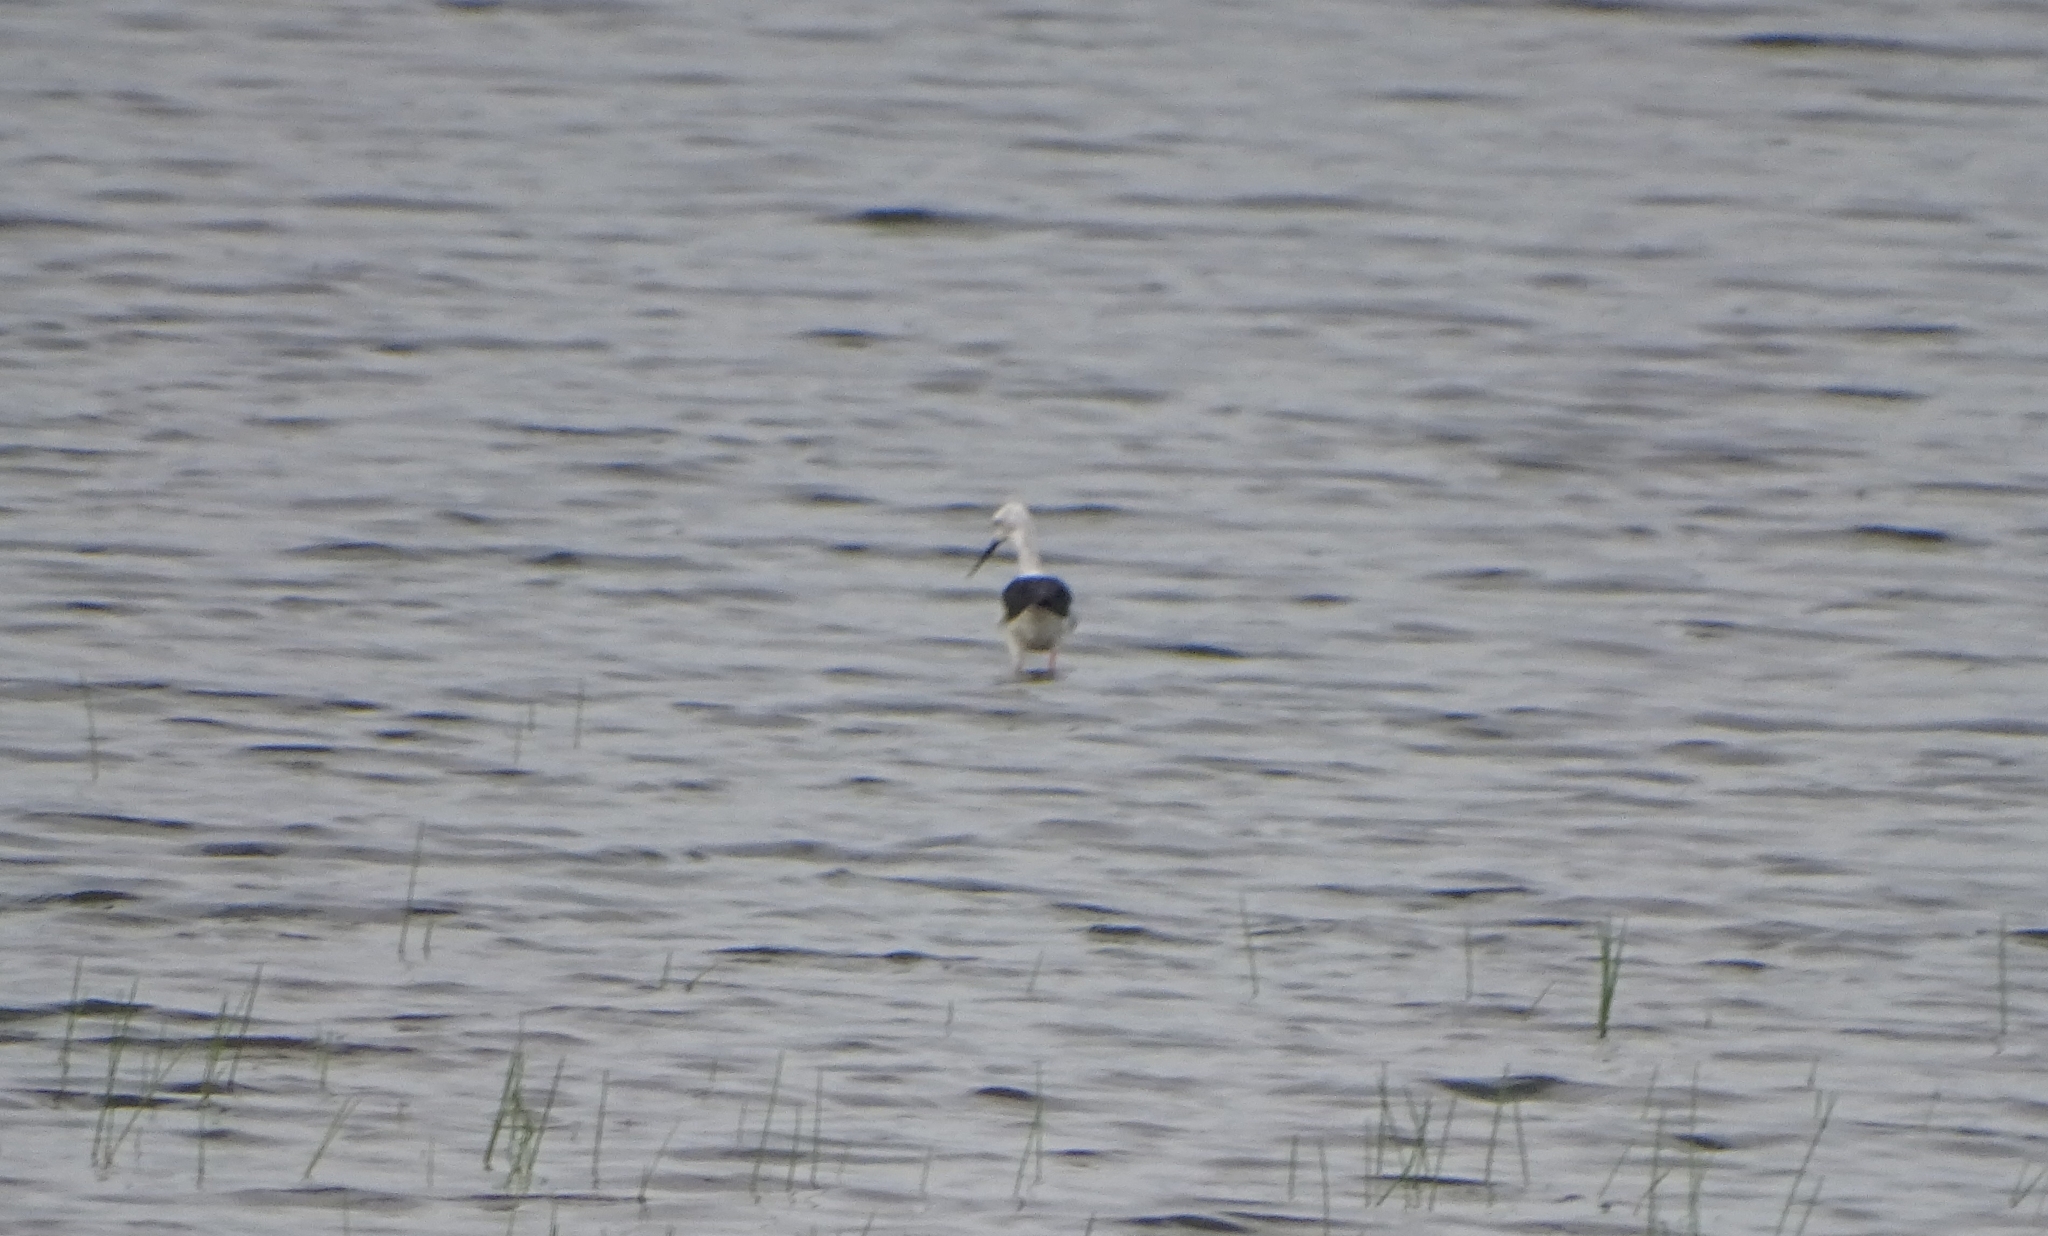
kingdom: Animalia
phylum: Chordata
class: Aves
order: Charadriiformes
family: Recurvirostridae
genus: Himantopus
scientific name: Himantopus himantopus
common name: Black-winged stilt
